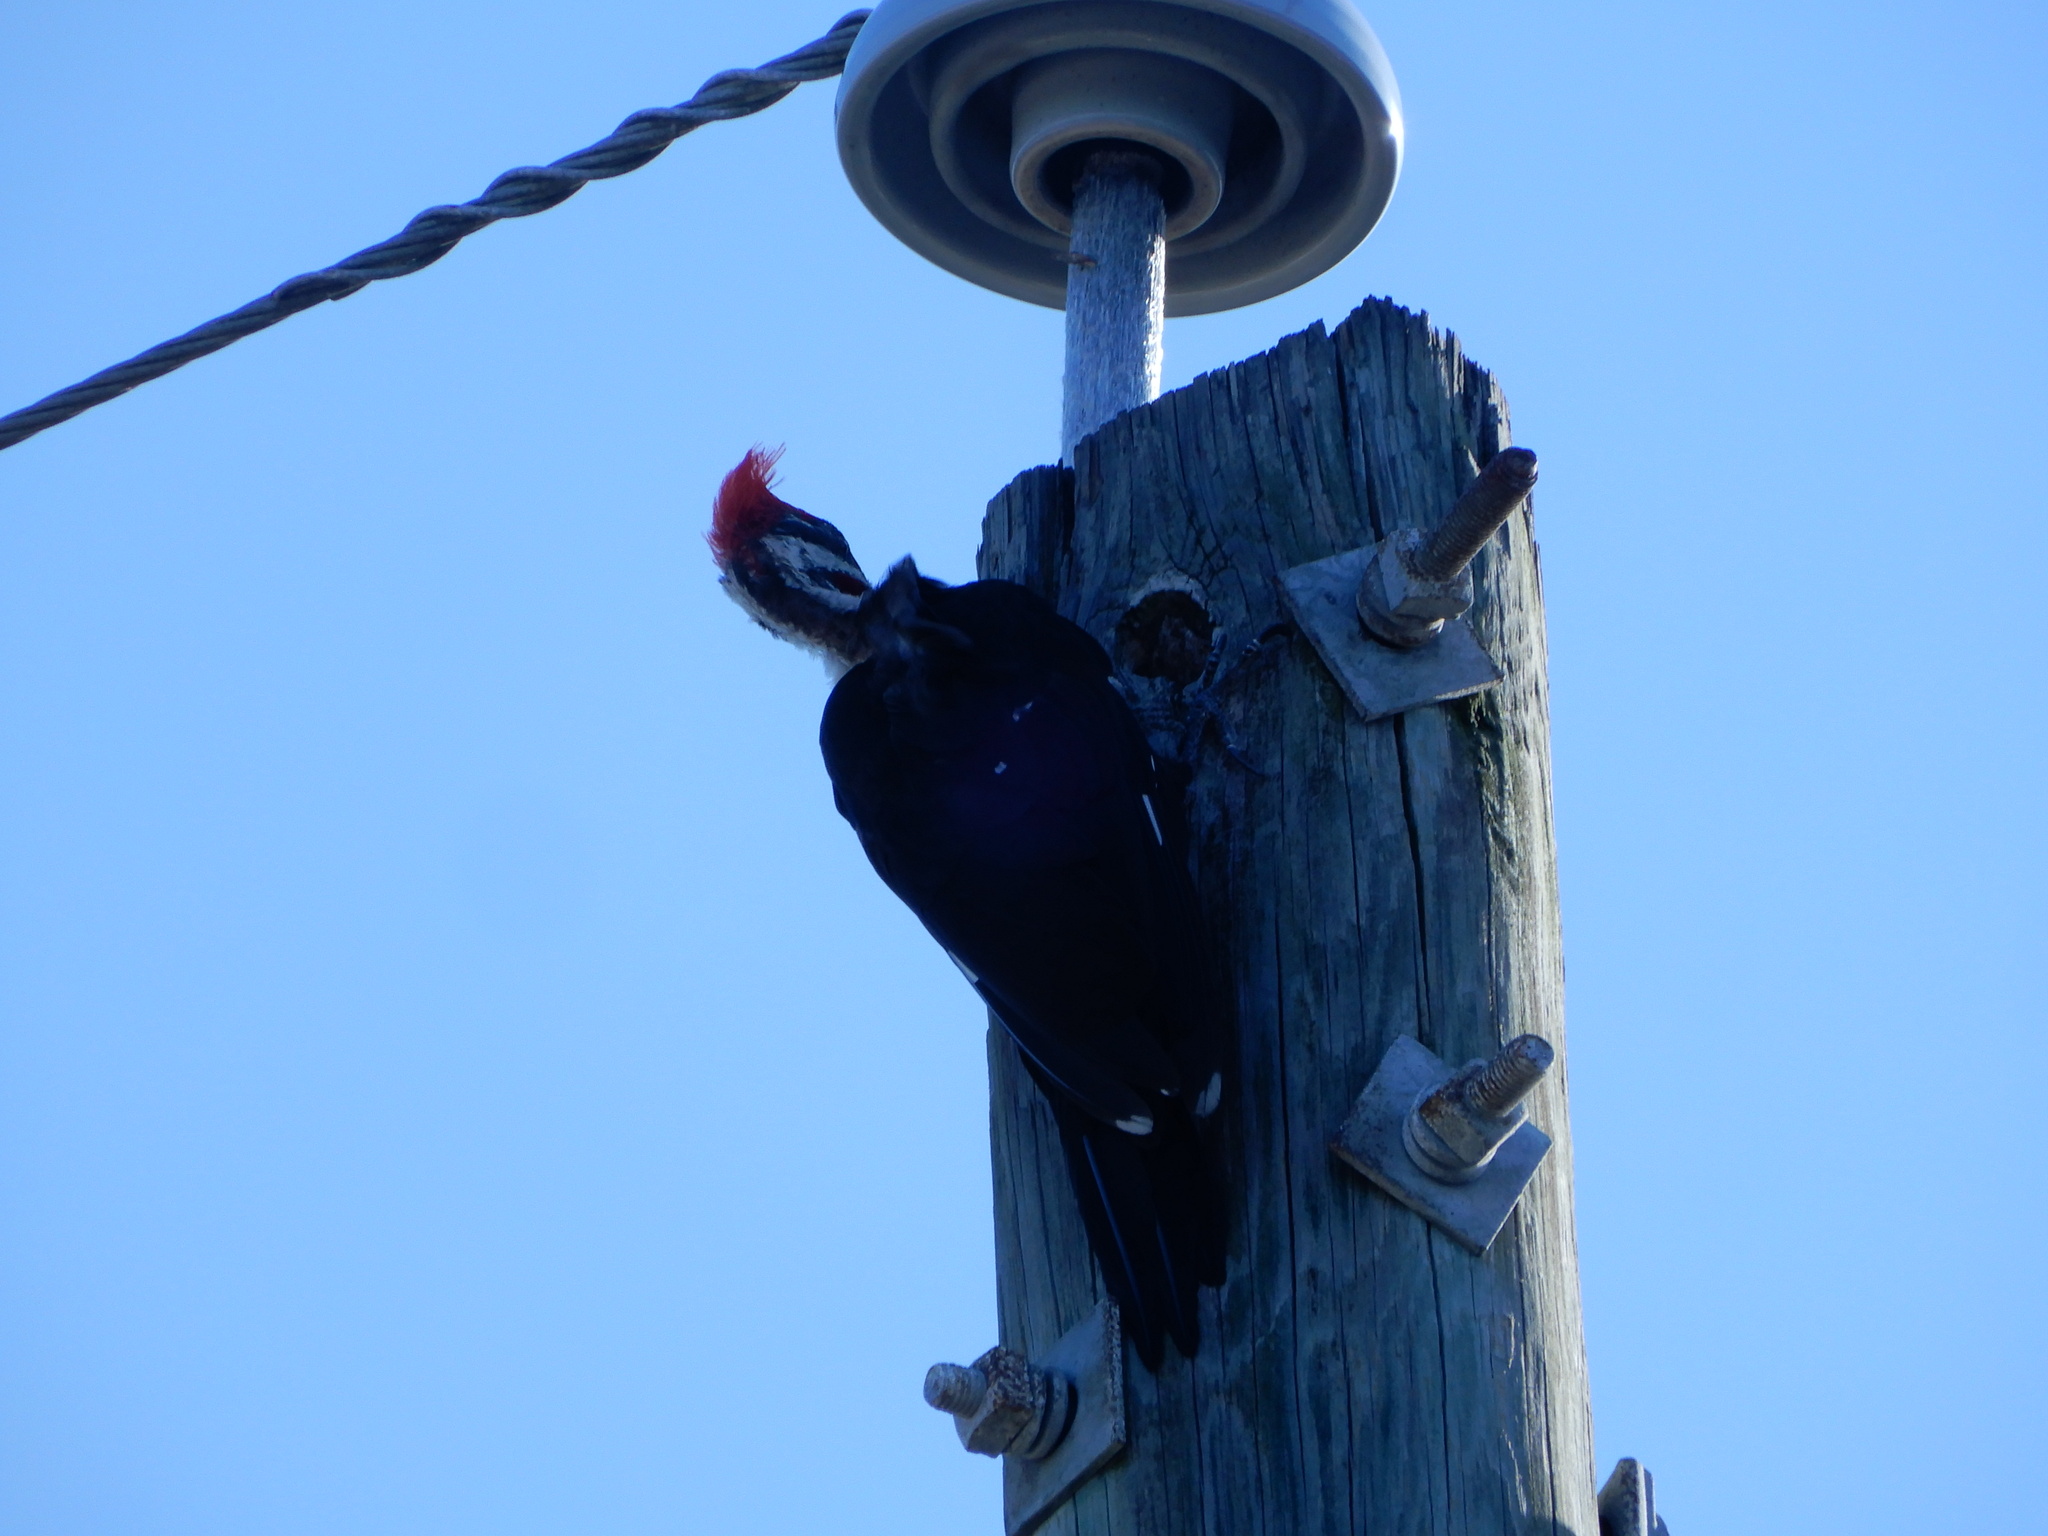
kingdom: Animalia
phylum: Chordata
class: Aves
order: Piciformes
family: Picidae
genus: Dryocopus
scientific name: Dryocopus pileatus
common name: Pileated woodpecker
